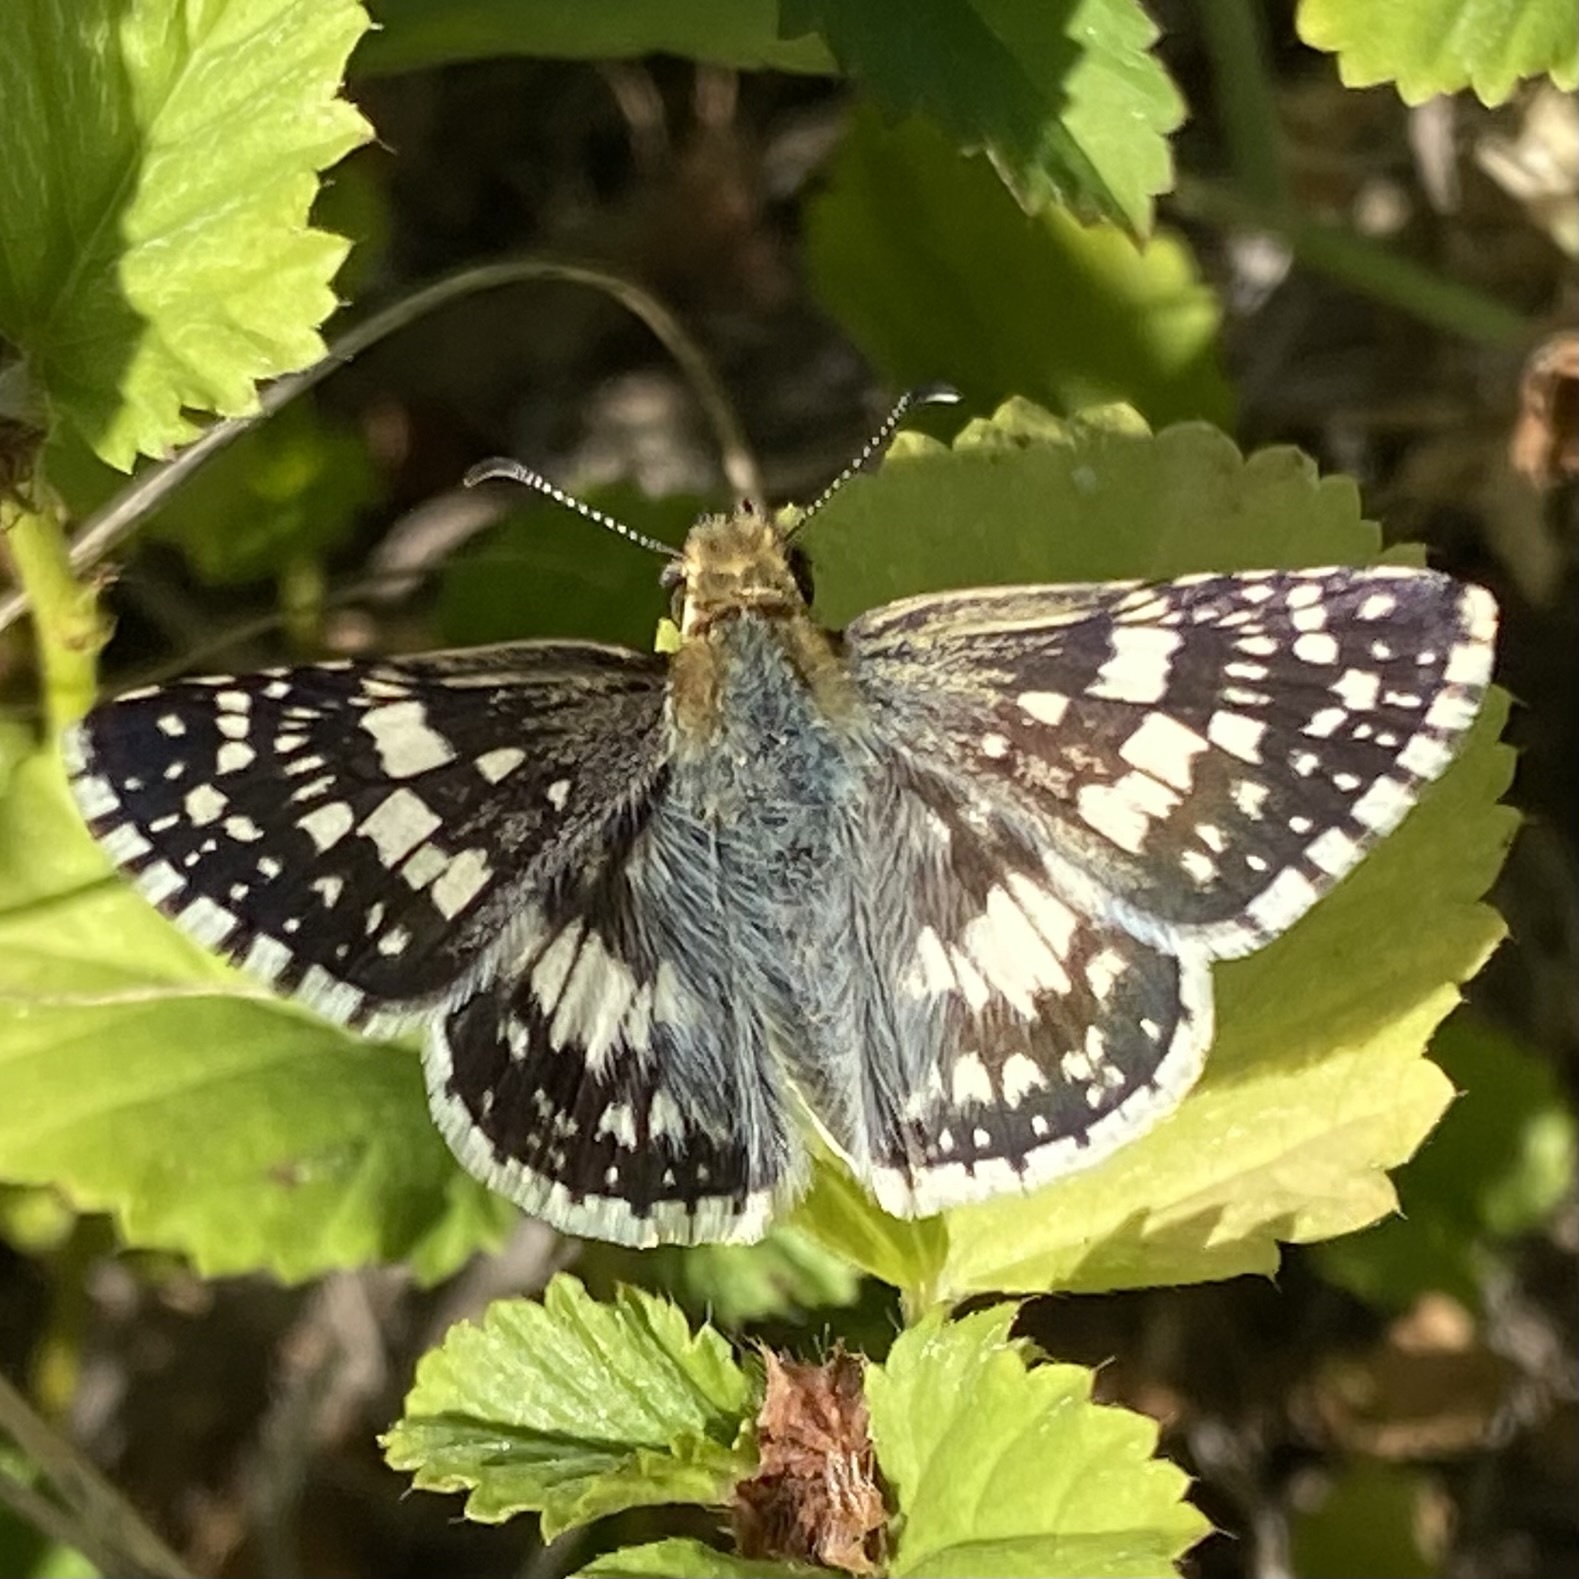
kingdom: Animalia
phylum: Arthropoda
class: Insecta
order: Lepidoptera
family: Hesperiidae
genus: Burnsius
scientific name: Burnsius
